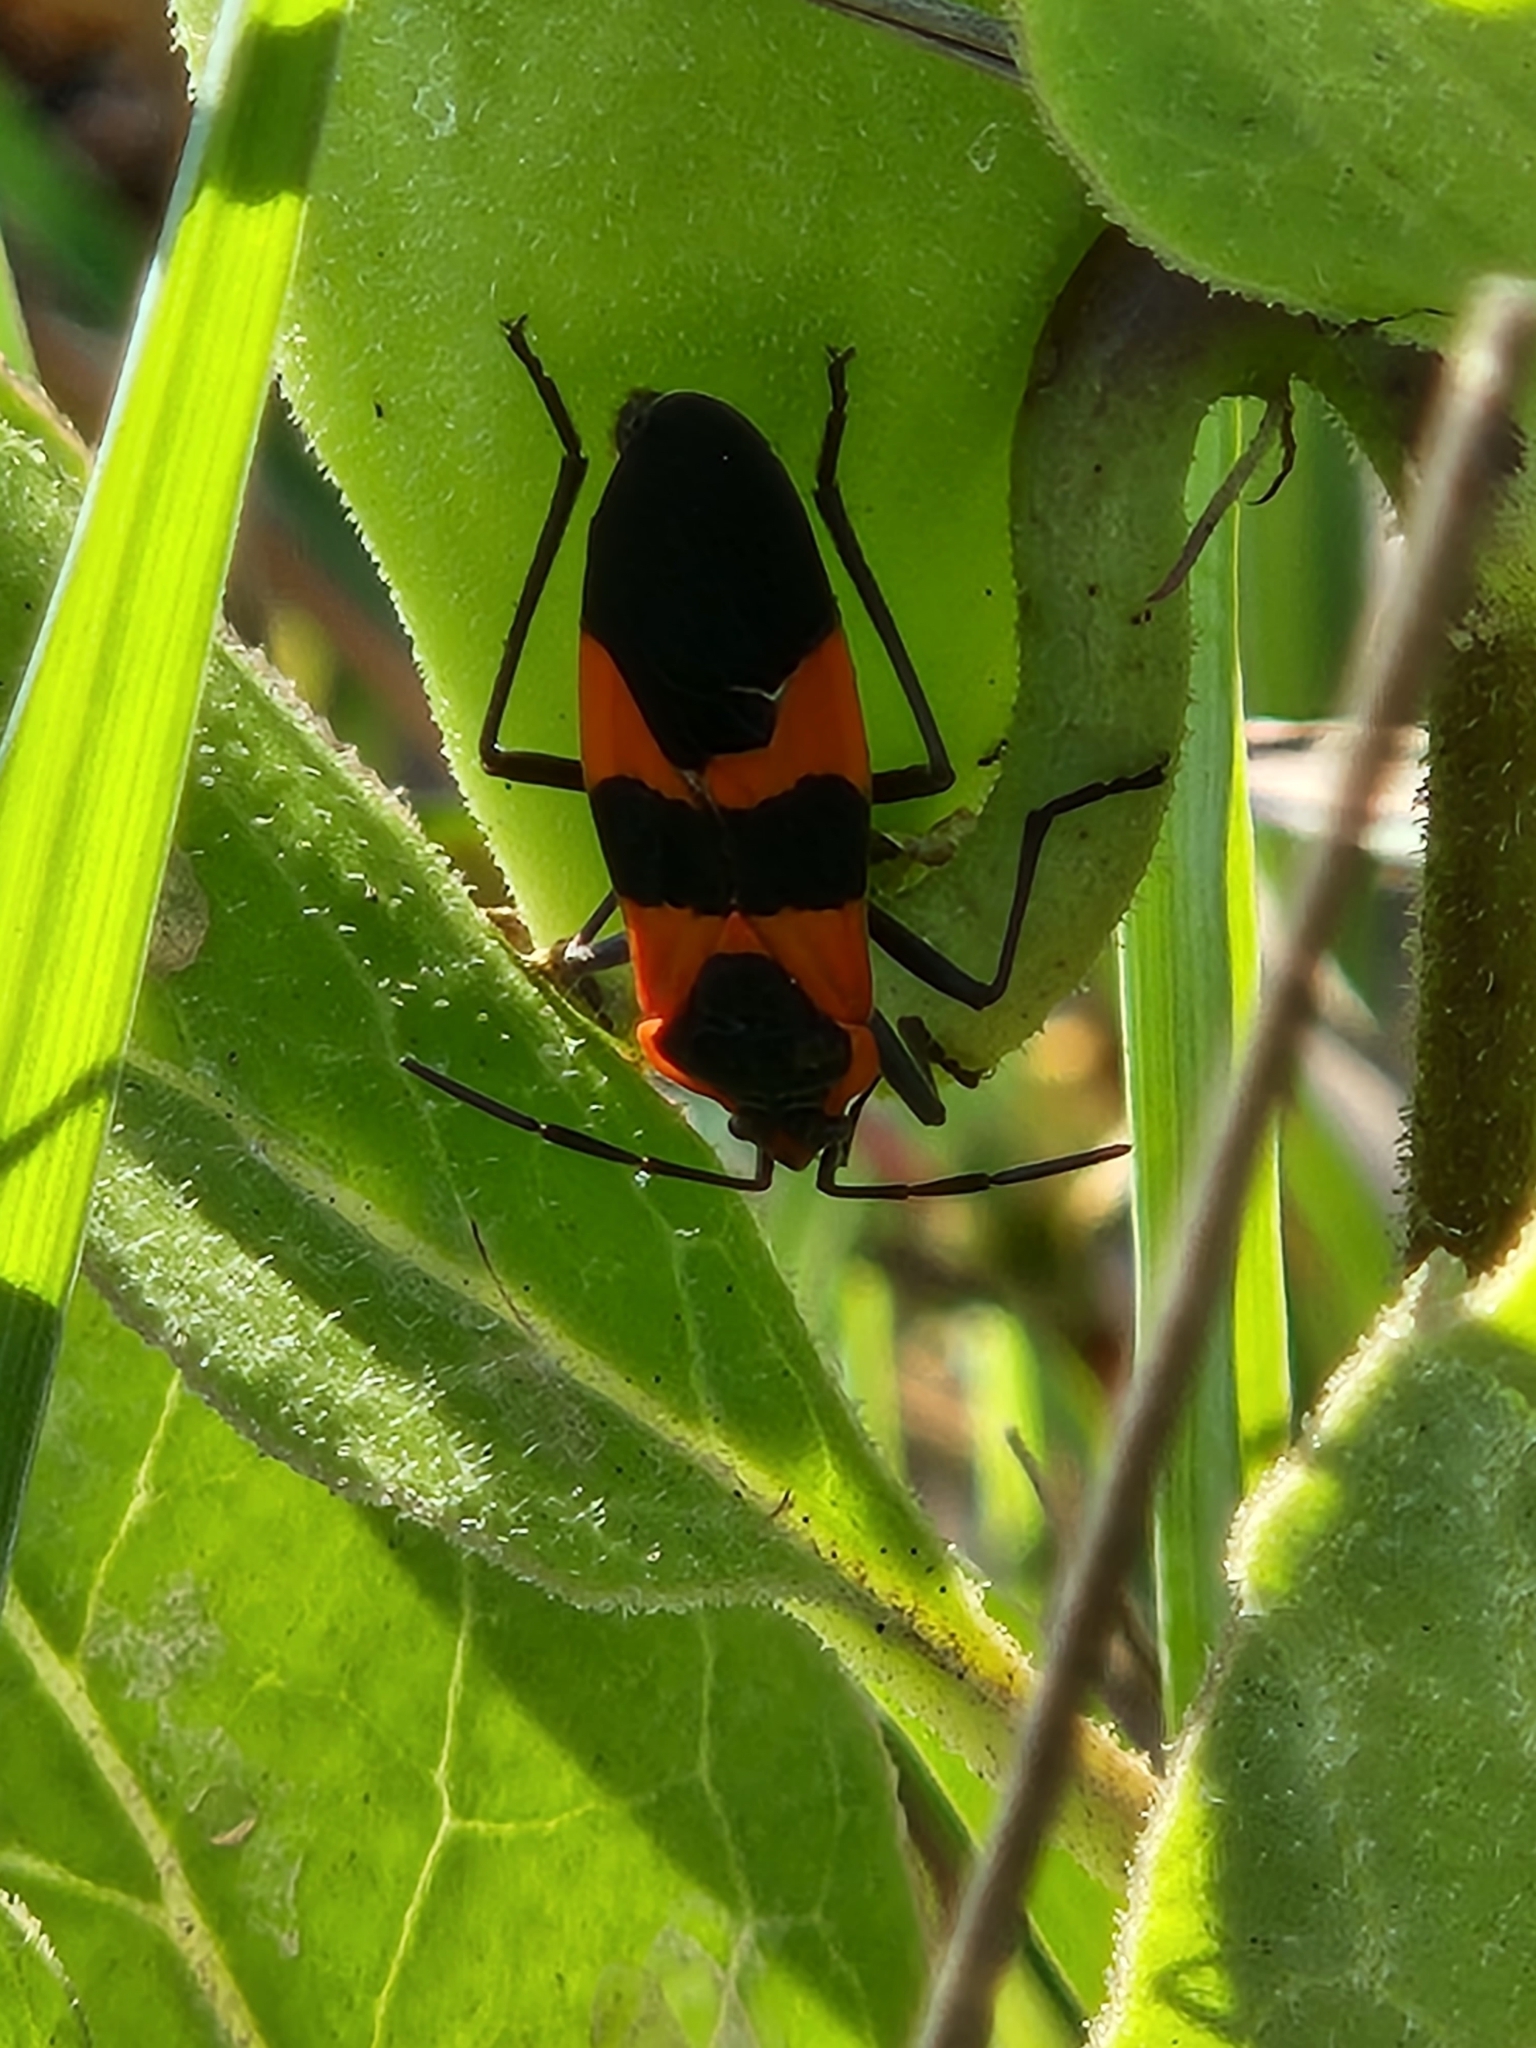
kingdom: Animalia
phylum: Arthropoda
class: Insecta
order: Hemiptera
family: Lygaeidae
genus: Oncopeltus
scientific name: Oncopeltus fasciatus
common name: Large milkweed bug
